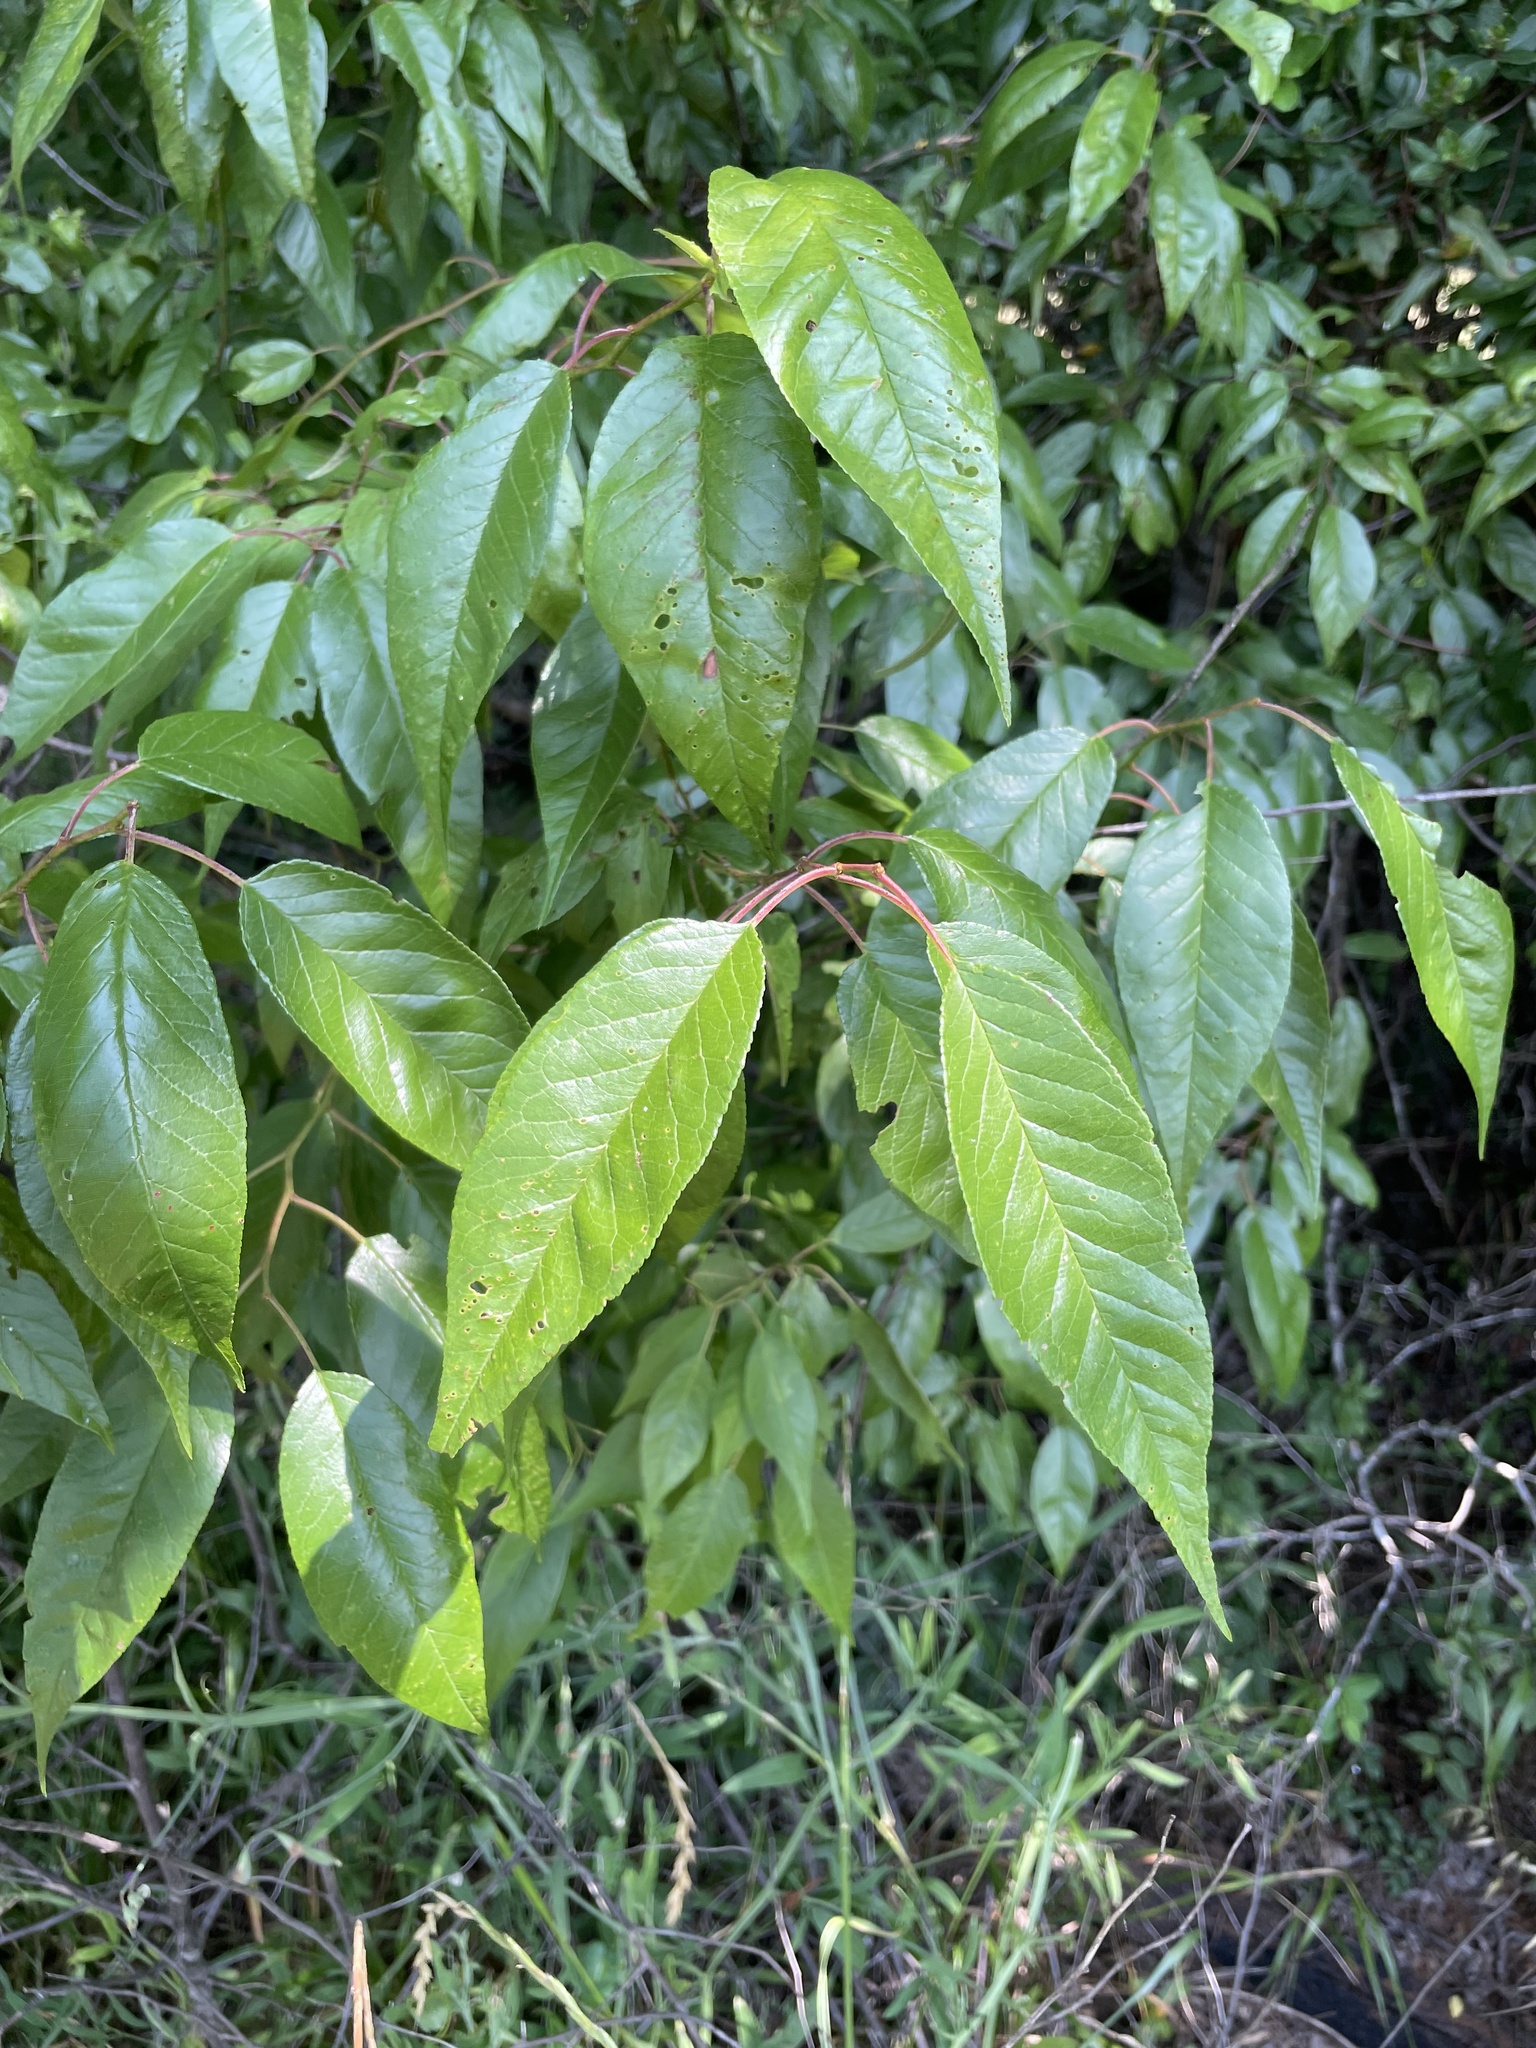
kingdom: Plantae
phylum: Tracheophyta
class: Magnoliopsida
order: Rosales
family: Rosaceae
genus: Prunus
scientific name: Prunus munsoniana
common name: Creek plum
